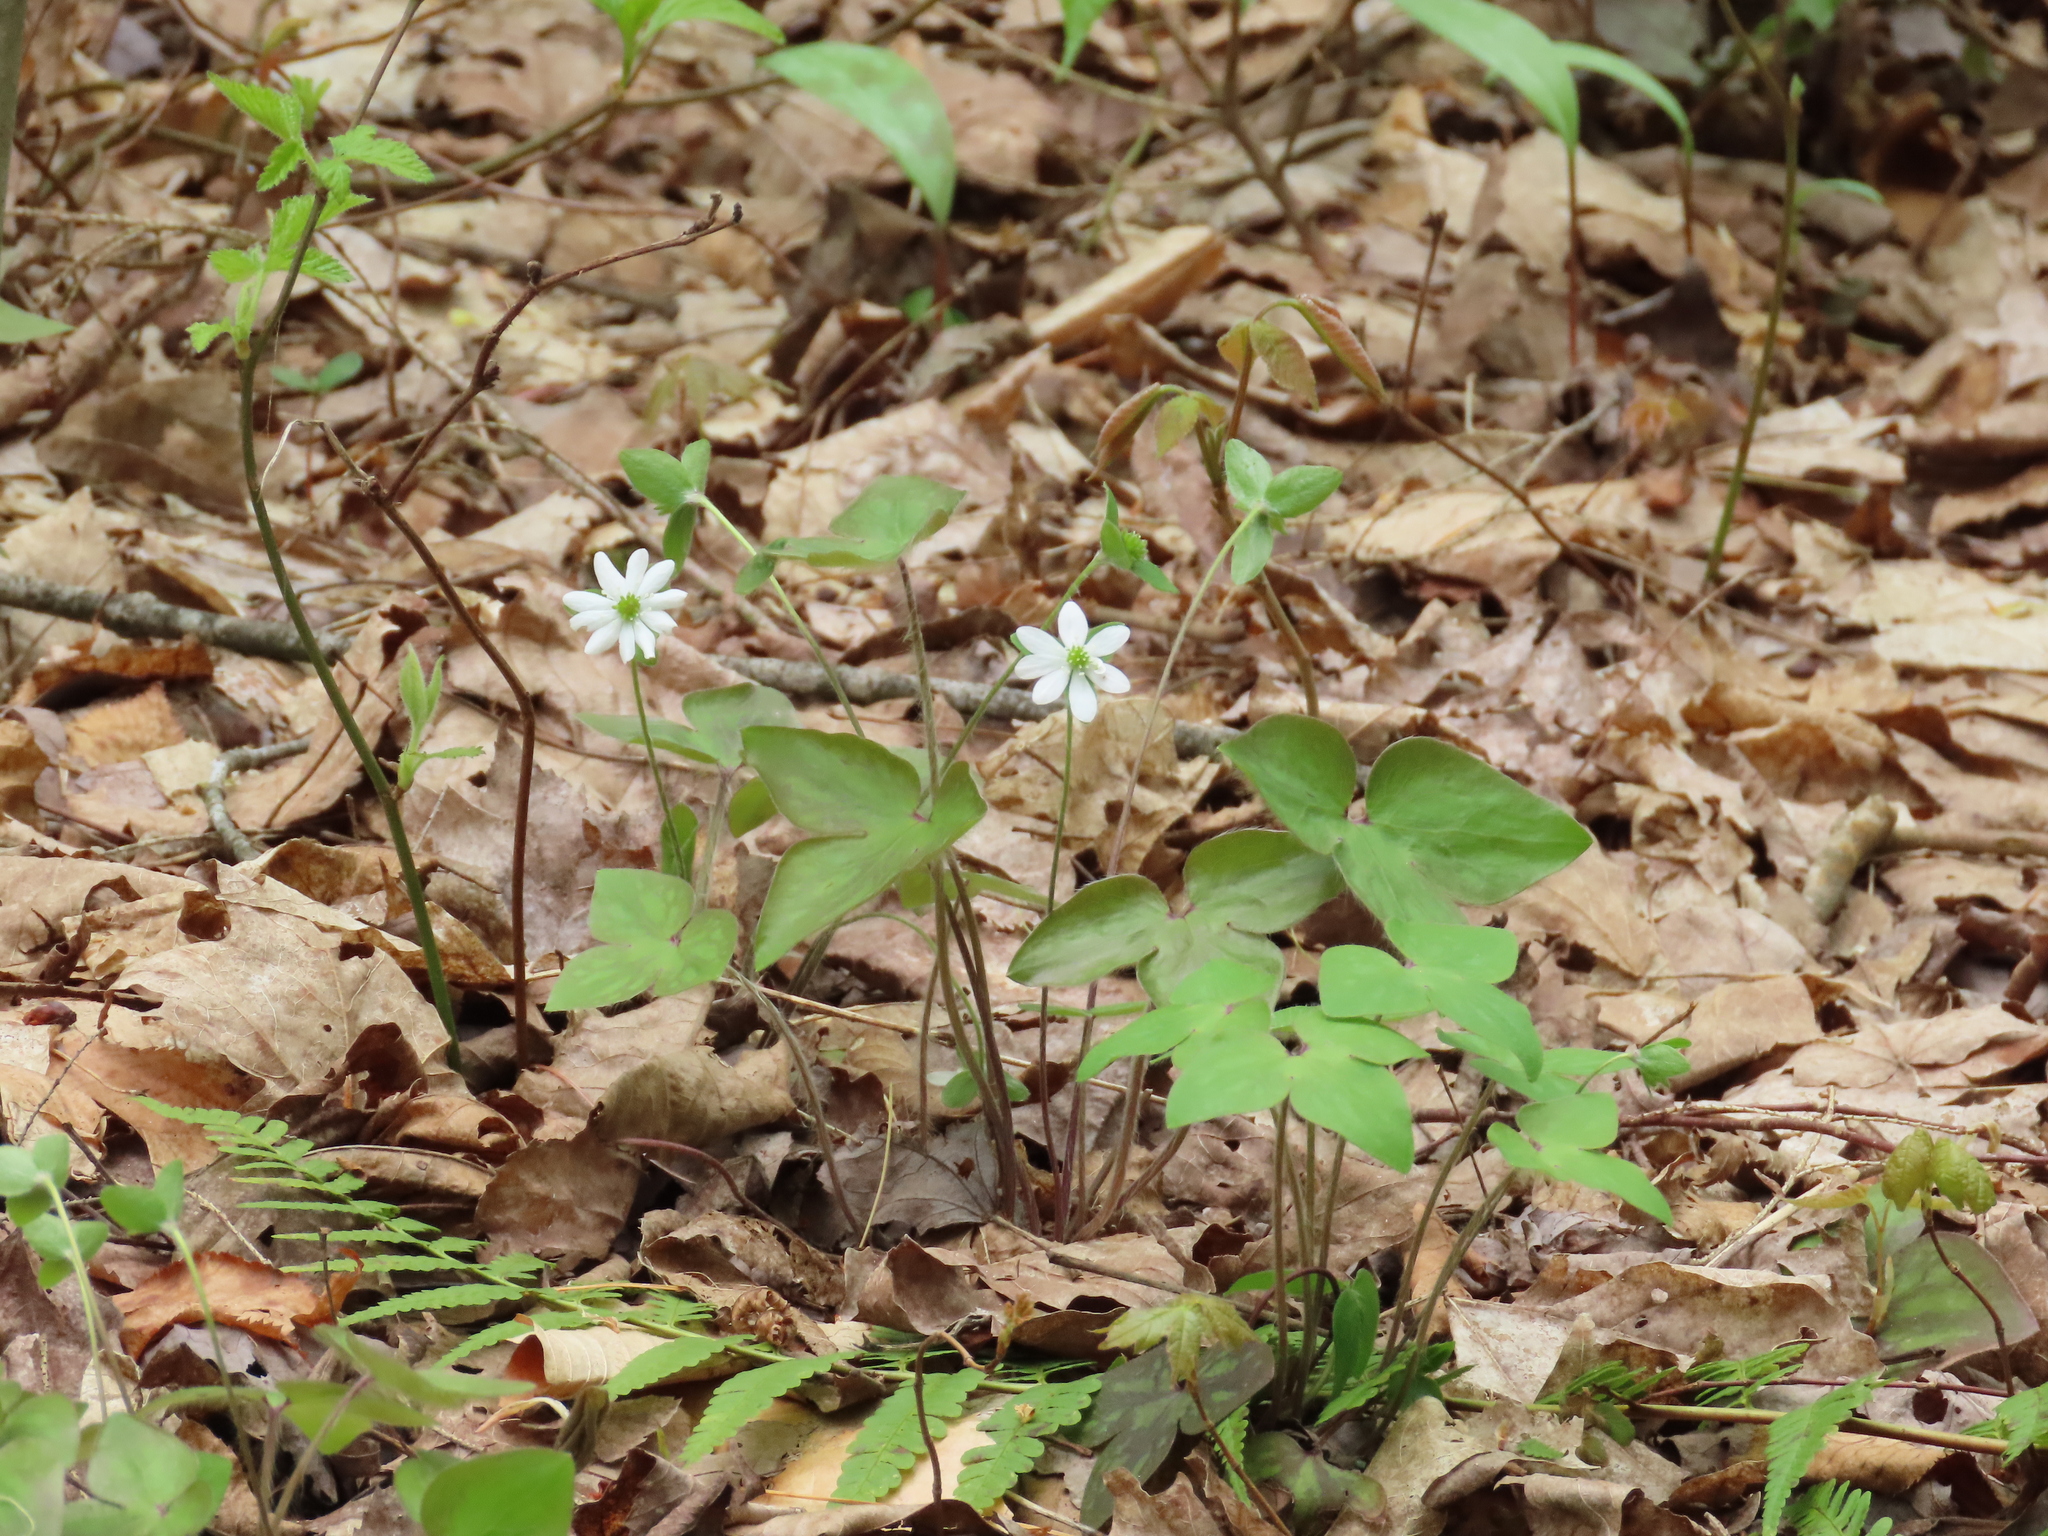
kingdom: Plantae
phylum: Tracheophyta
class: Magnoliopsida
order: Ranunculales
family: Ranunculaceae
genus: Hepatica
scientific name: Hepatica acutiloba
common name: Sharp-lobed hepatica
